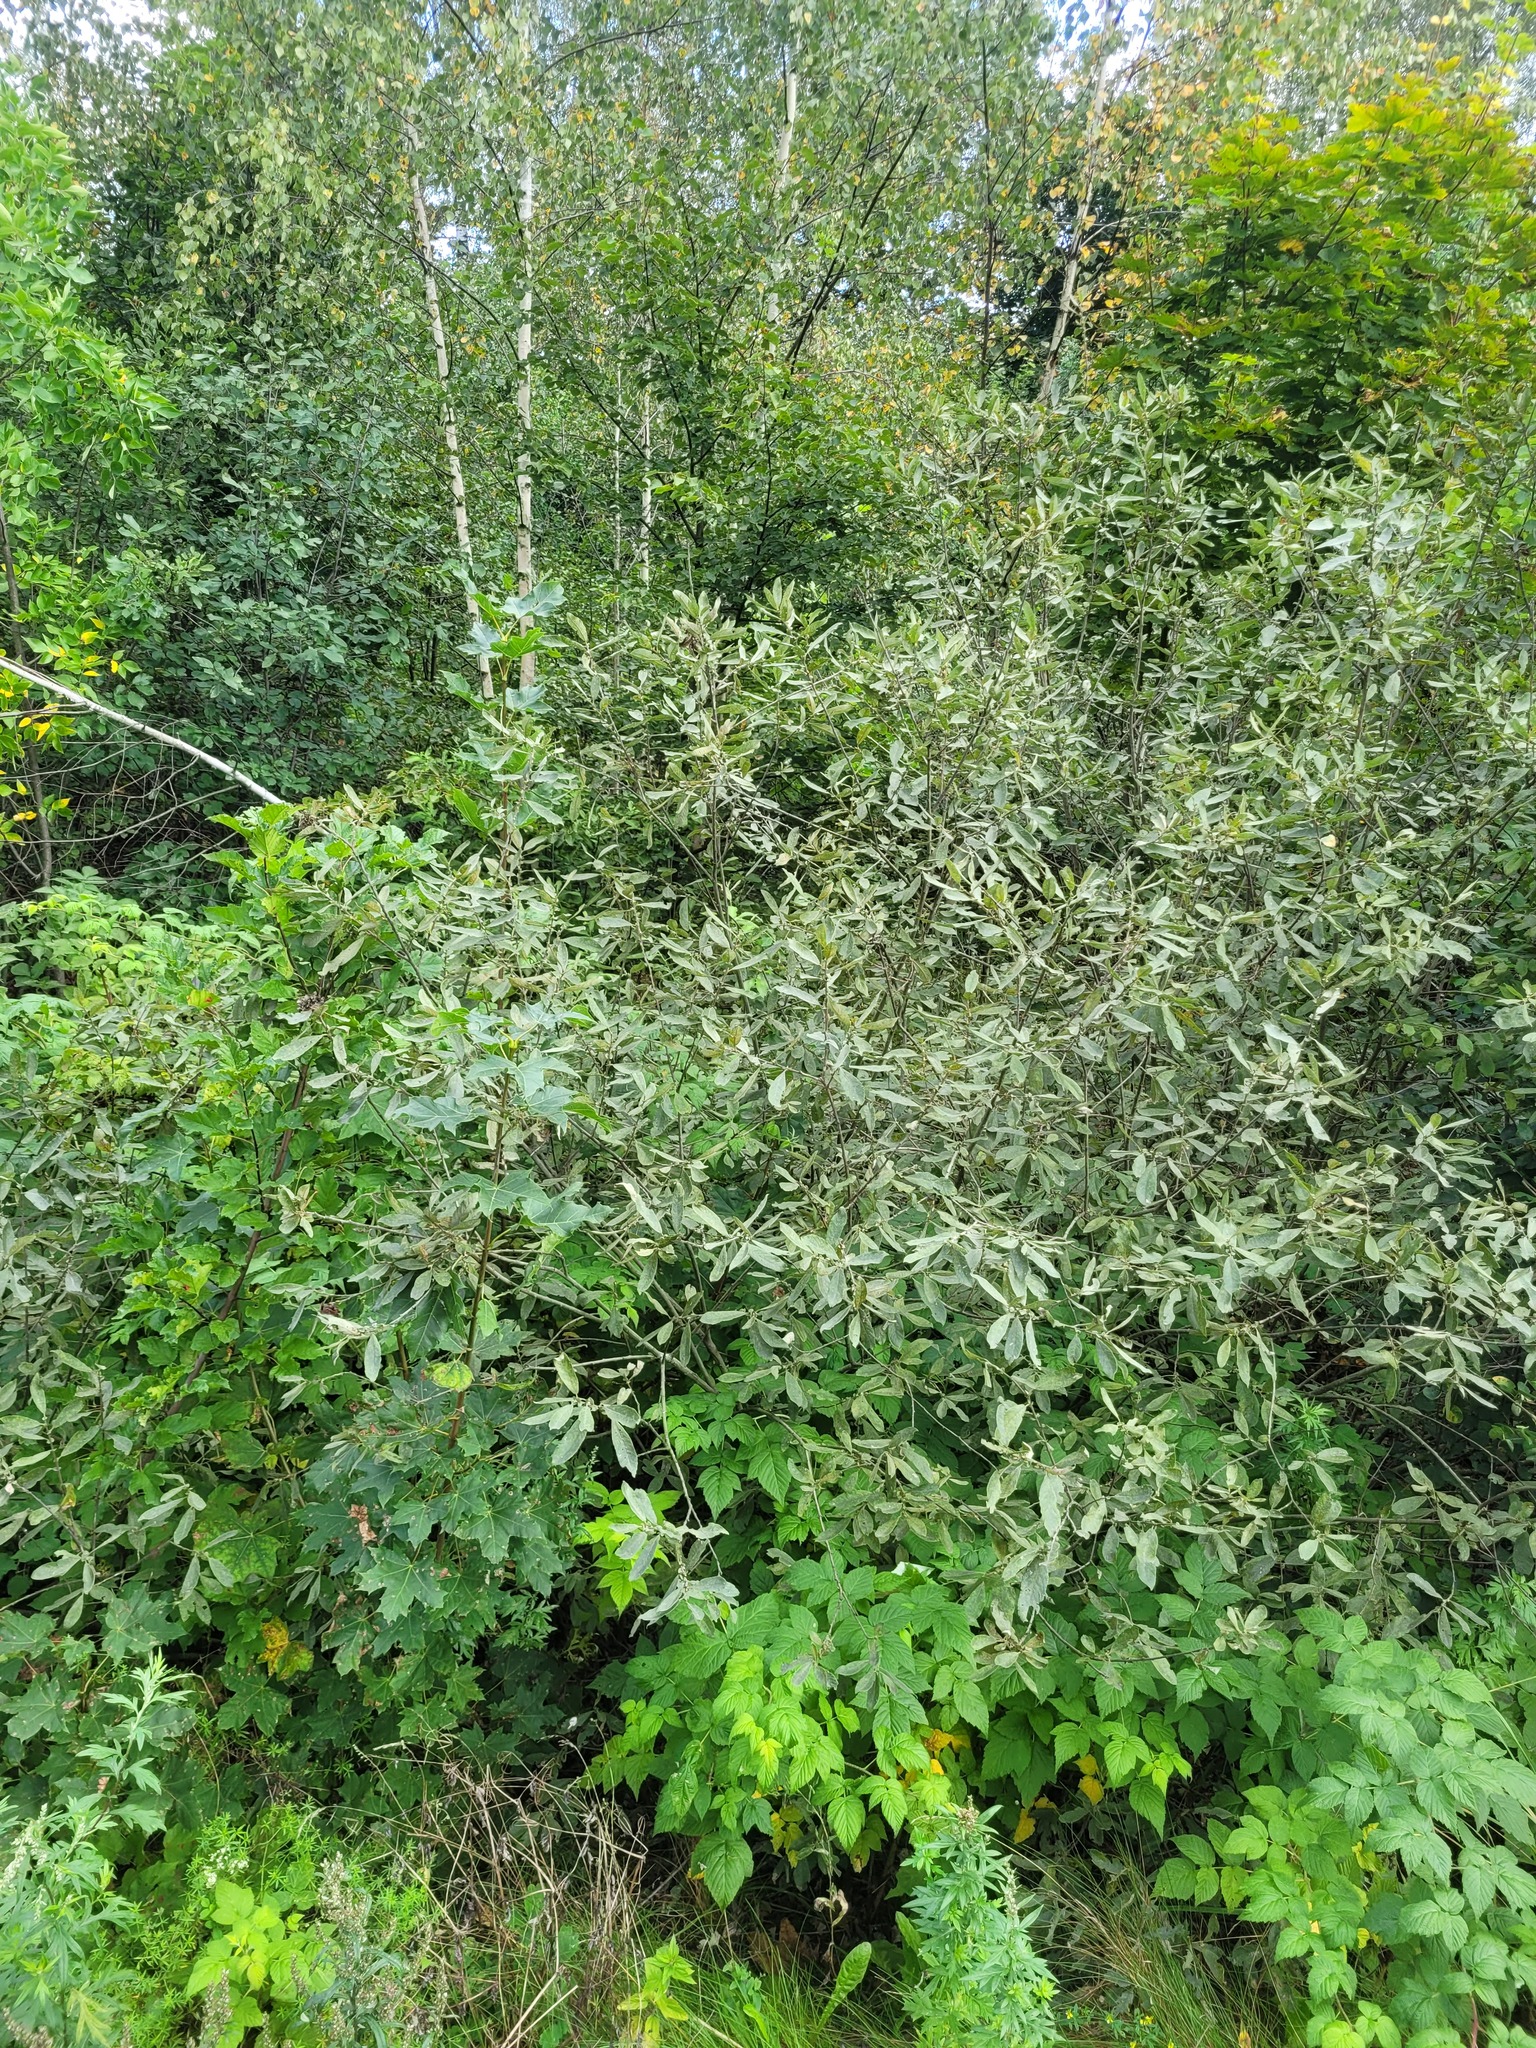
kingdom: Plantae
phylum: Tracheophyta
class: Magnoliopsida
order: Malpighiales
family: Salicaceae
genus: Salix
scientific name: Salix cinerea
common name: Common sallow
